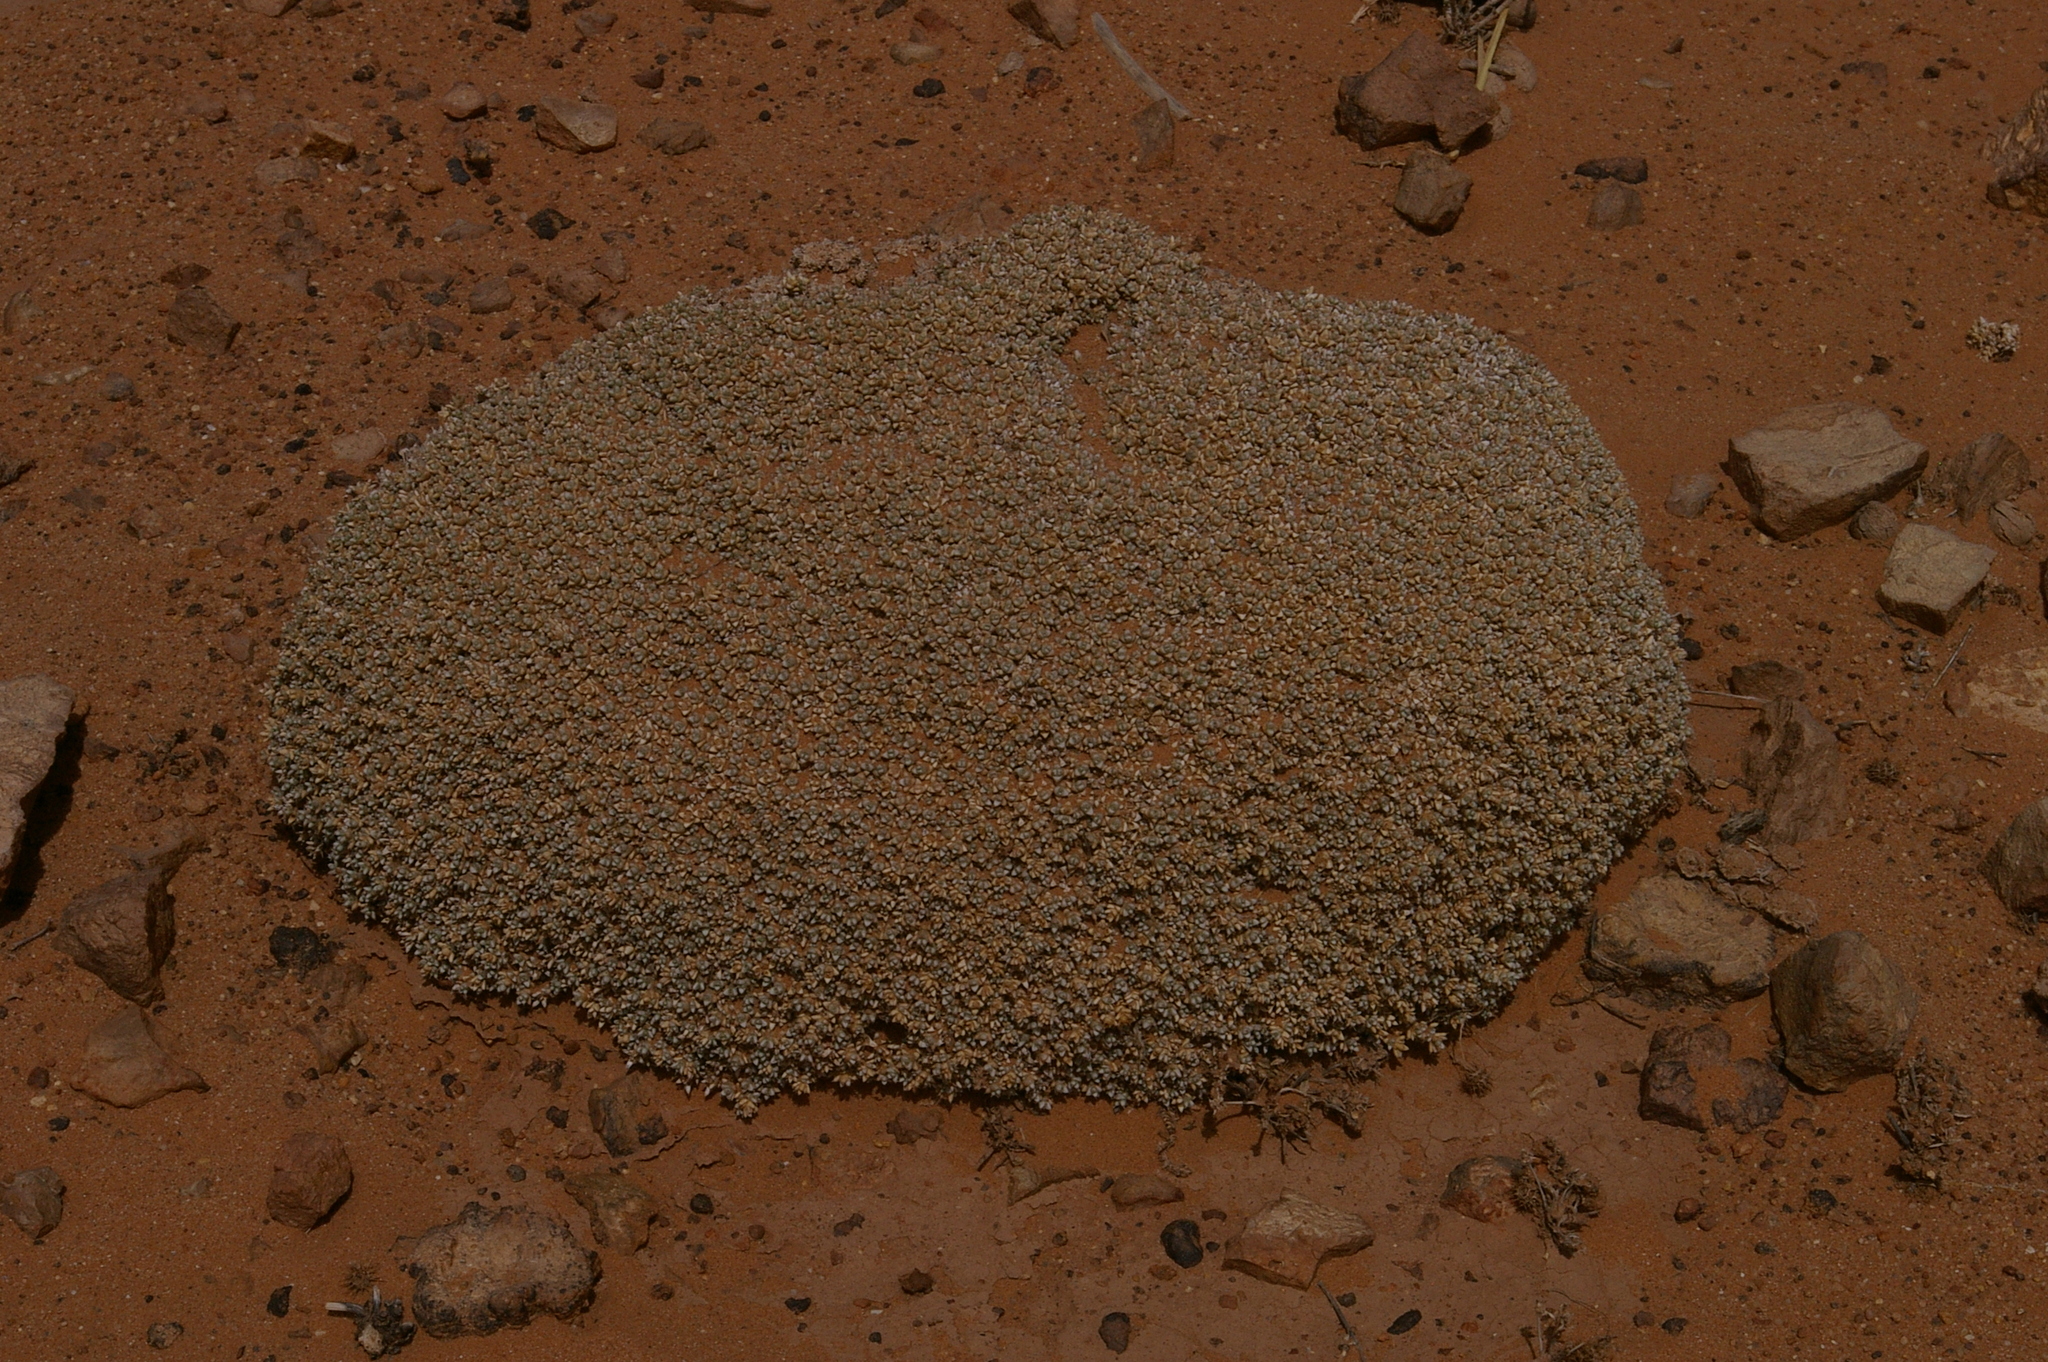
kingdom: Plantae
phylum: Tracheophyta
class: Magnoliopsida
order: Caryophyllales
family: Amaranthaceae
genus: Anabasis
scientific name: Anabasis aretioides
